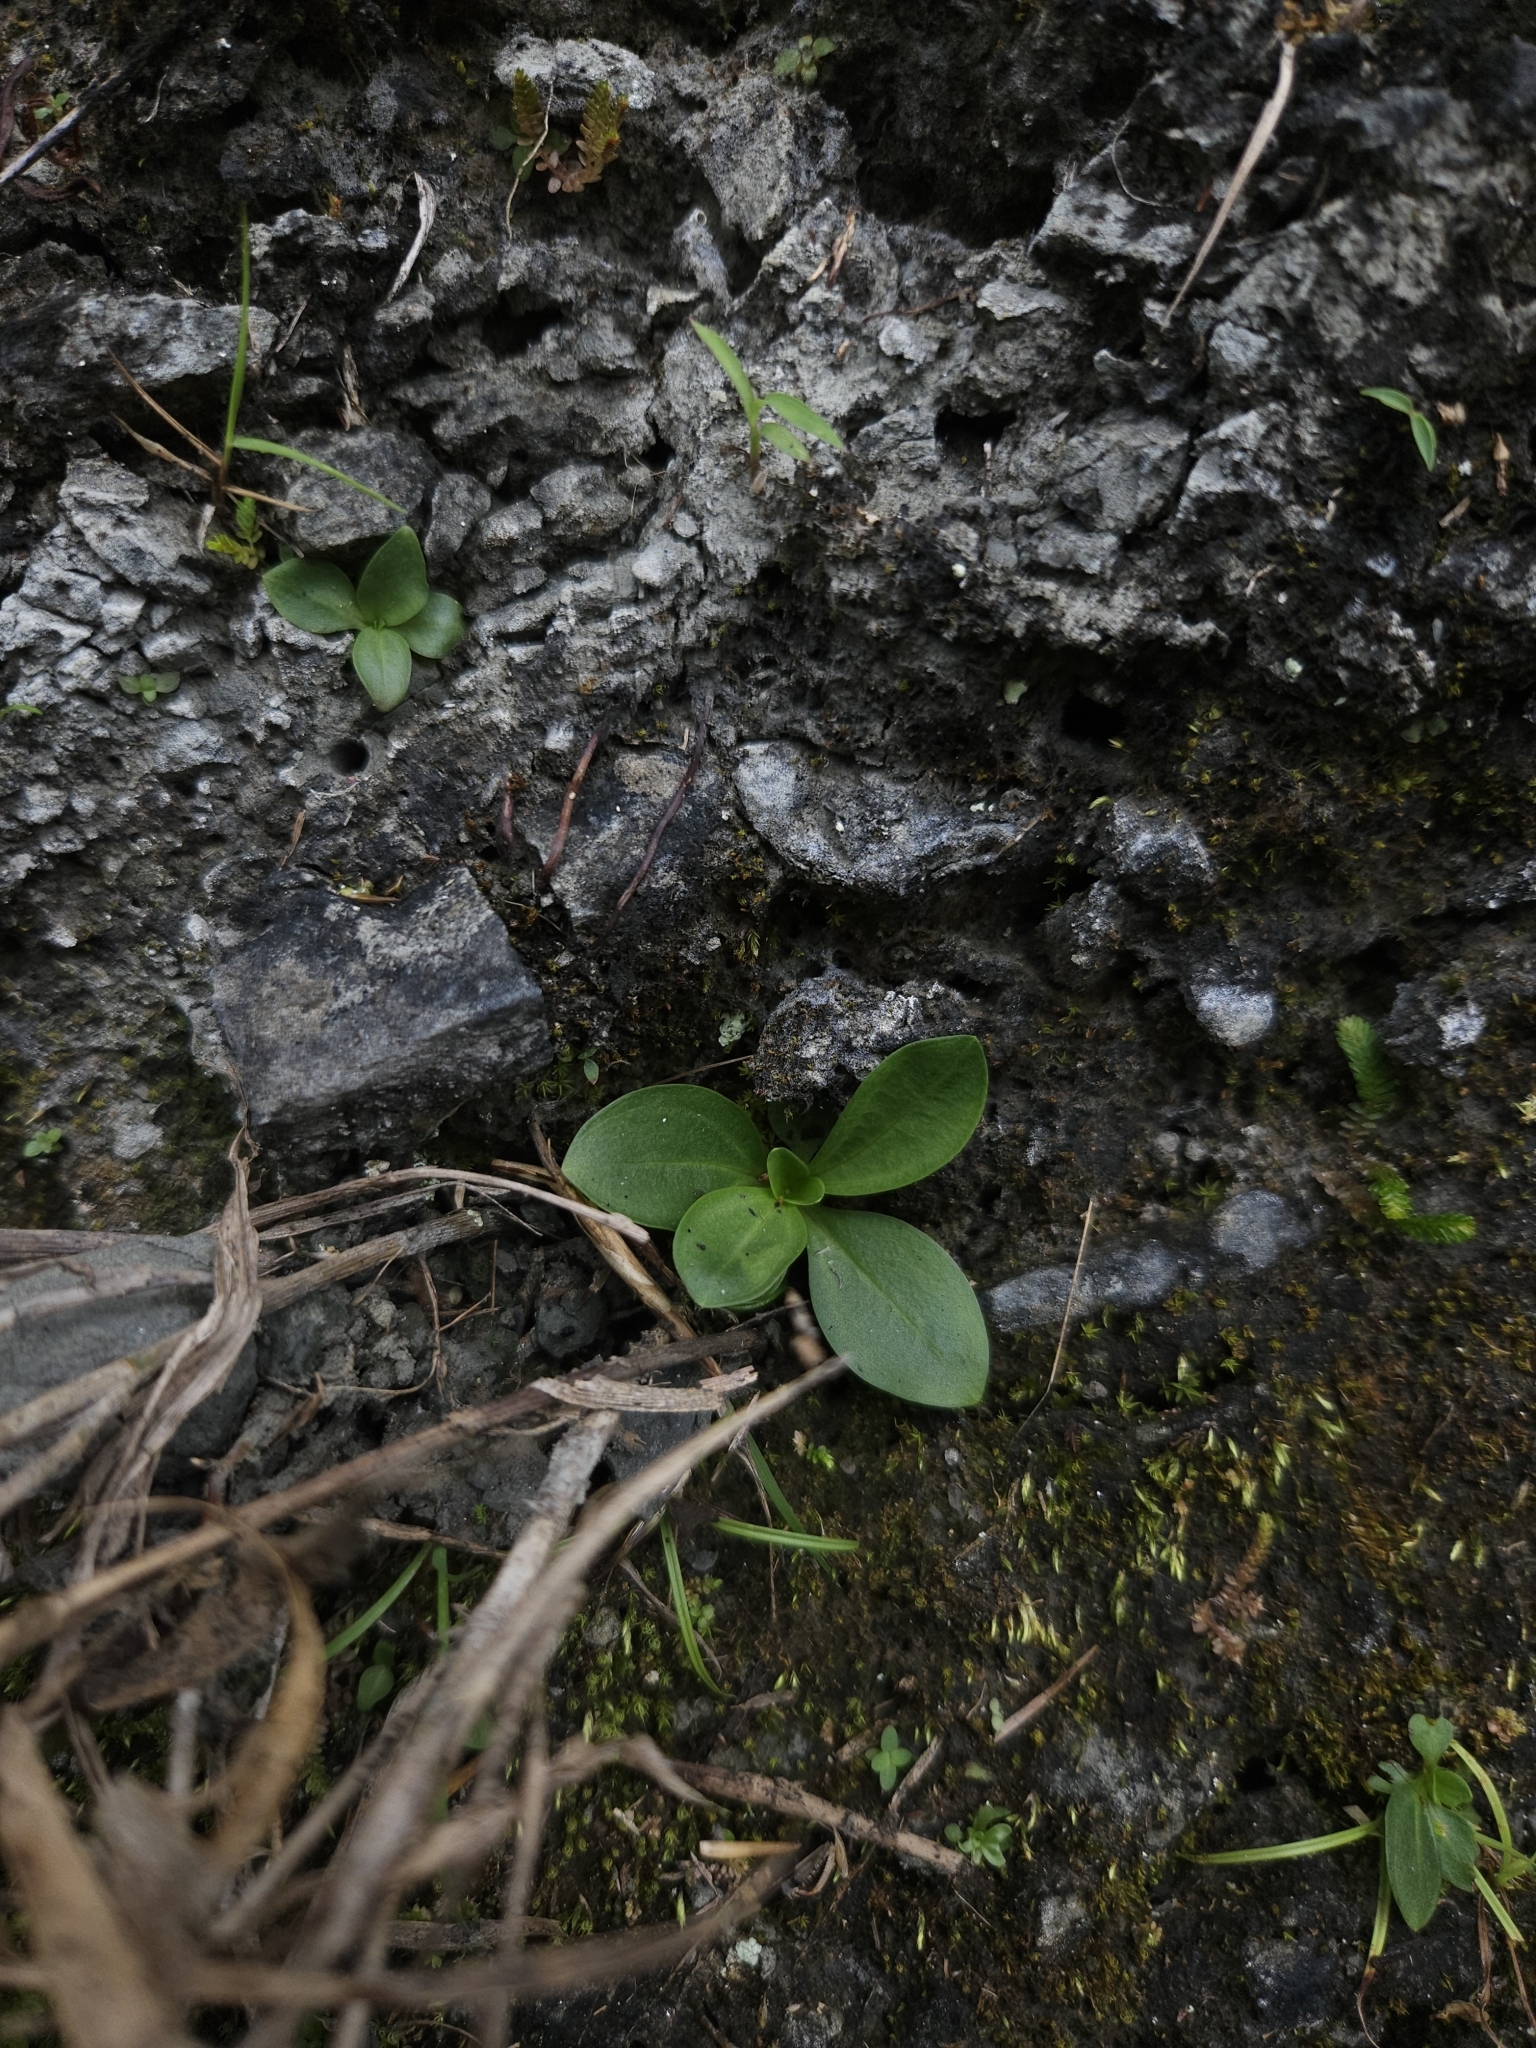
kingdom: Plantae
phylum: Tracheophyta
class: Magnoliopsida
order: Gentianales
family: Gentianaceae
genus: Swertia
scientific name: Swertia arisanensis
